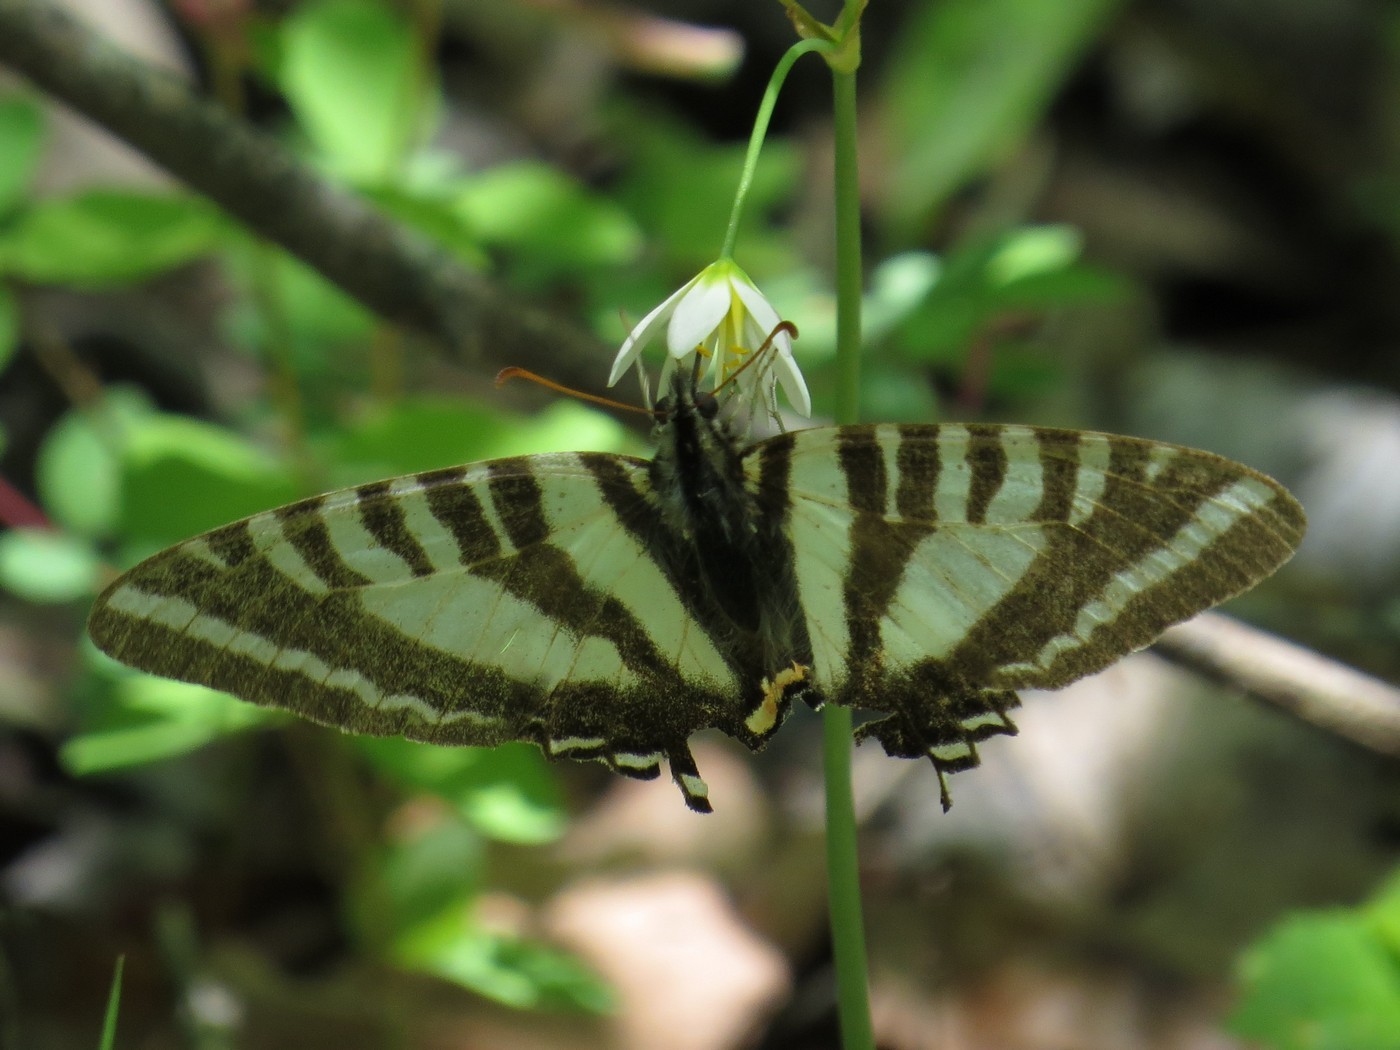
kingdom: Animalia
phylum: Arthropoda
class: Insecta
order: Lepidoptera
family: Papilionidae
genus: Protographium
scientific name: Protographium marcellus
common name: Zebra swallowtail
